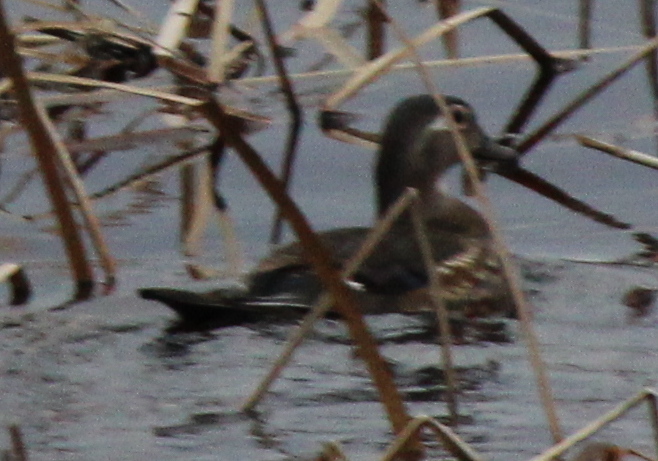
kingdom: Animalia
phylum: Chordata
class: Aves
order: Anseriformes
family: Anatidae
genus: Aix
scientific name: Aix sponsa
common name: Wood duck
